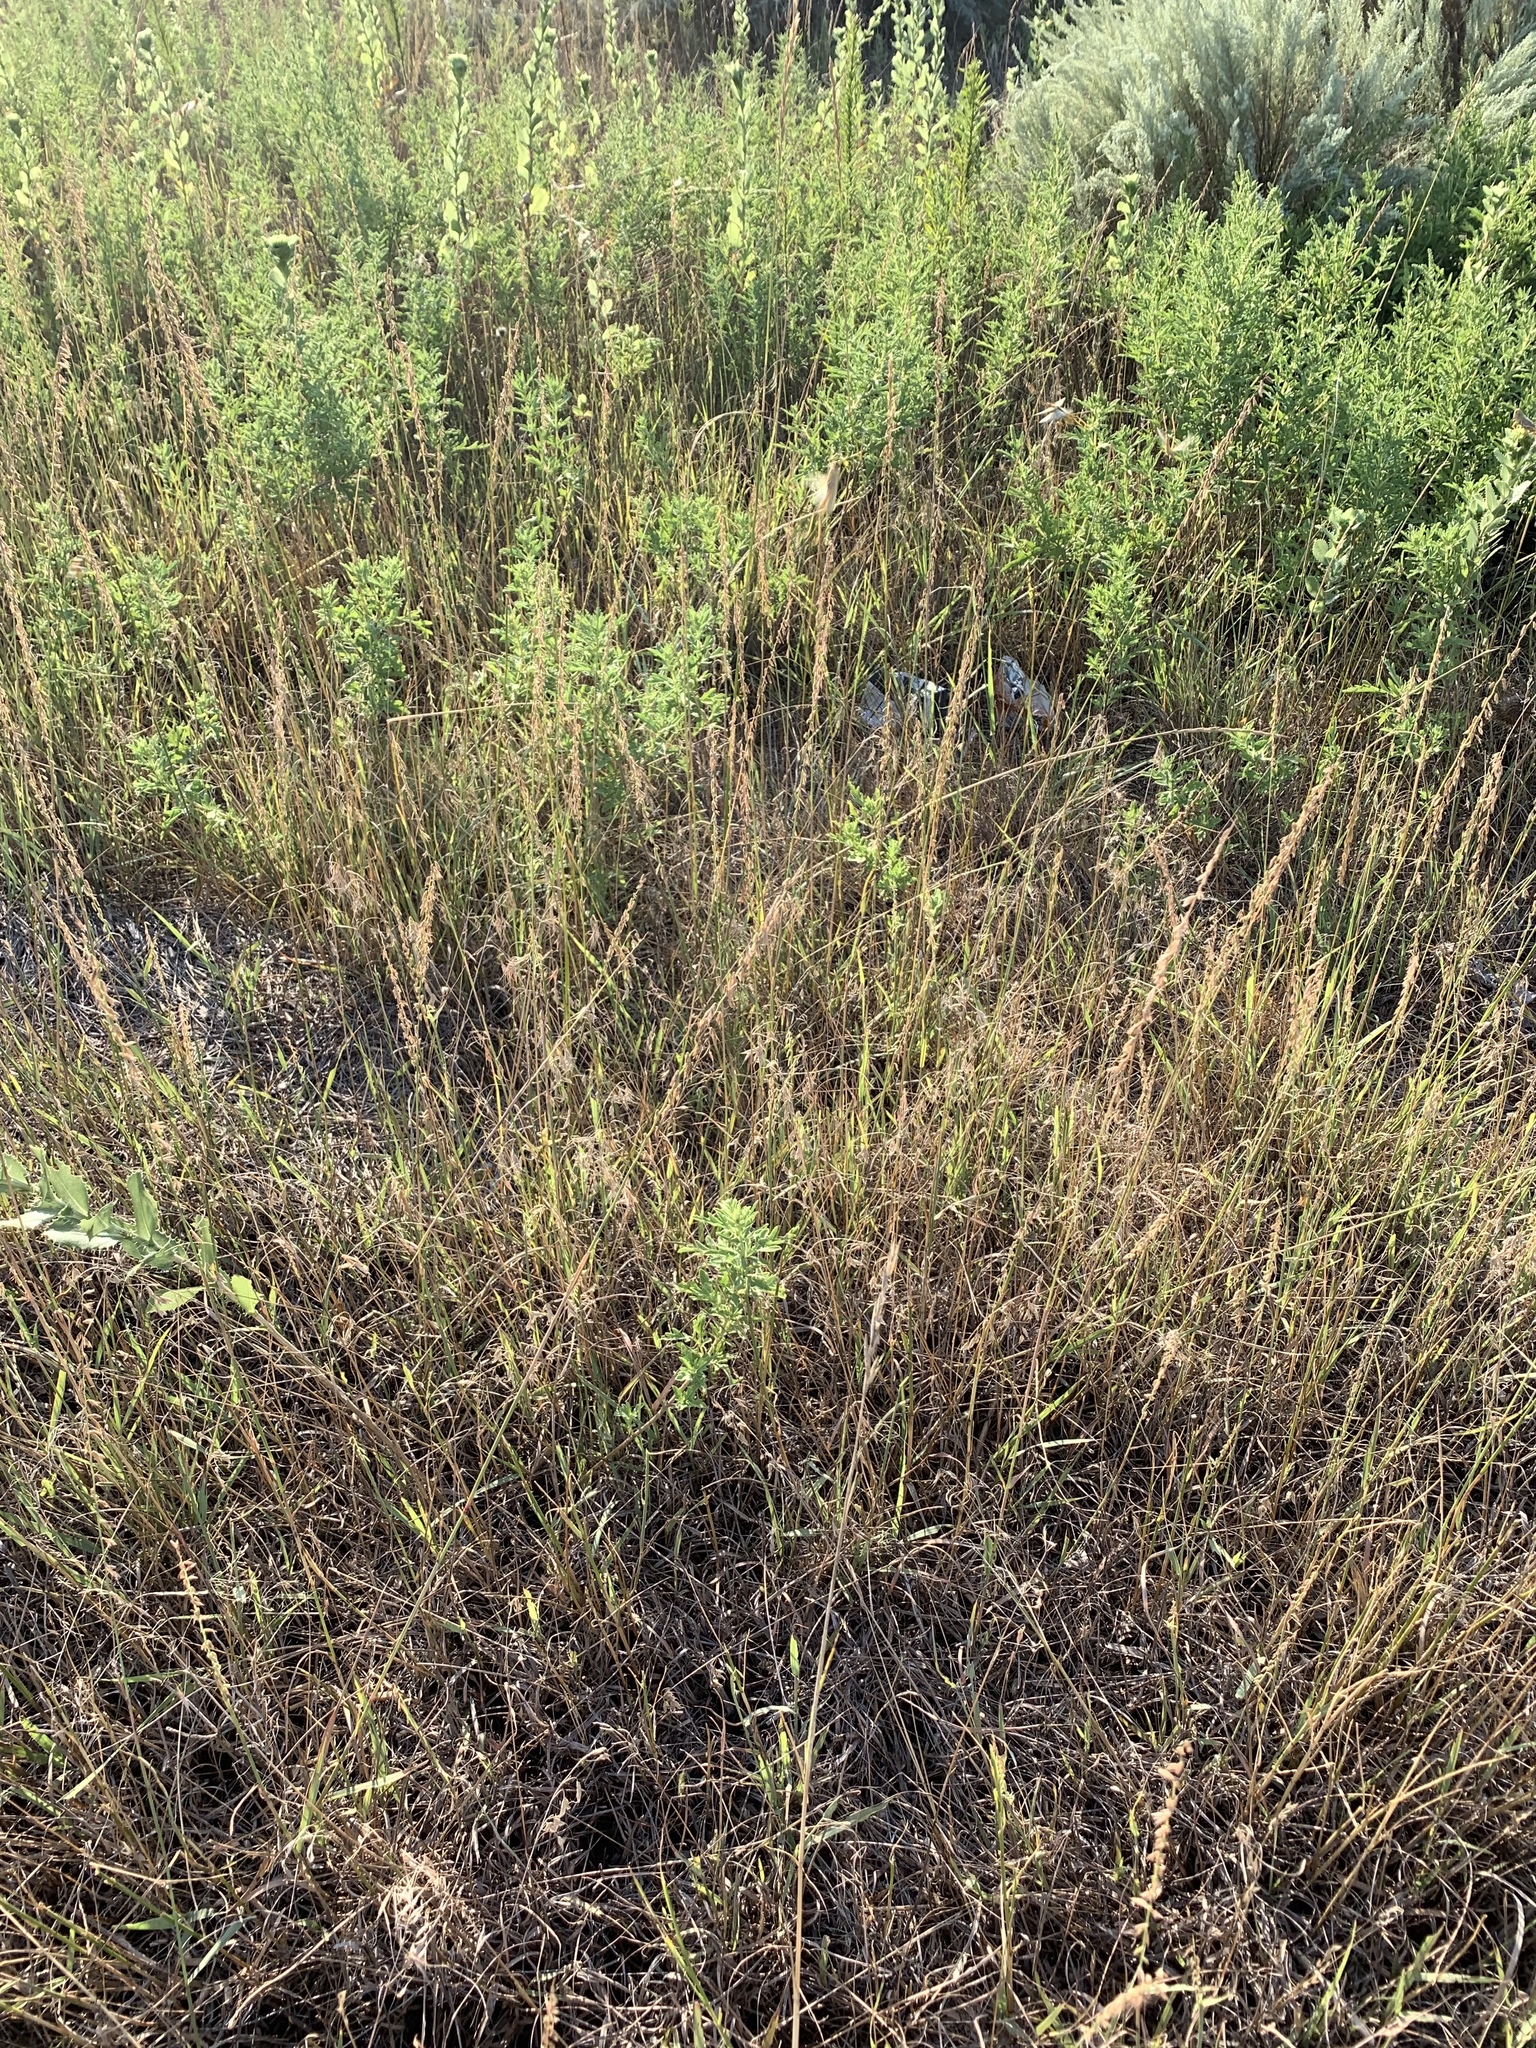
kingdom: Plantae
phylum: Tracheophyta
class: Liliopsida
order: Poales
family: Poaceae
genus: Bouteloua
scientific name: Bouteloua curtipendula
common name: Side-oats grama
